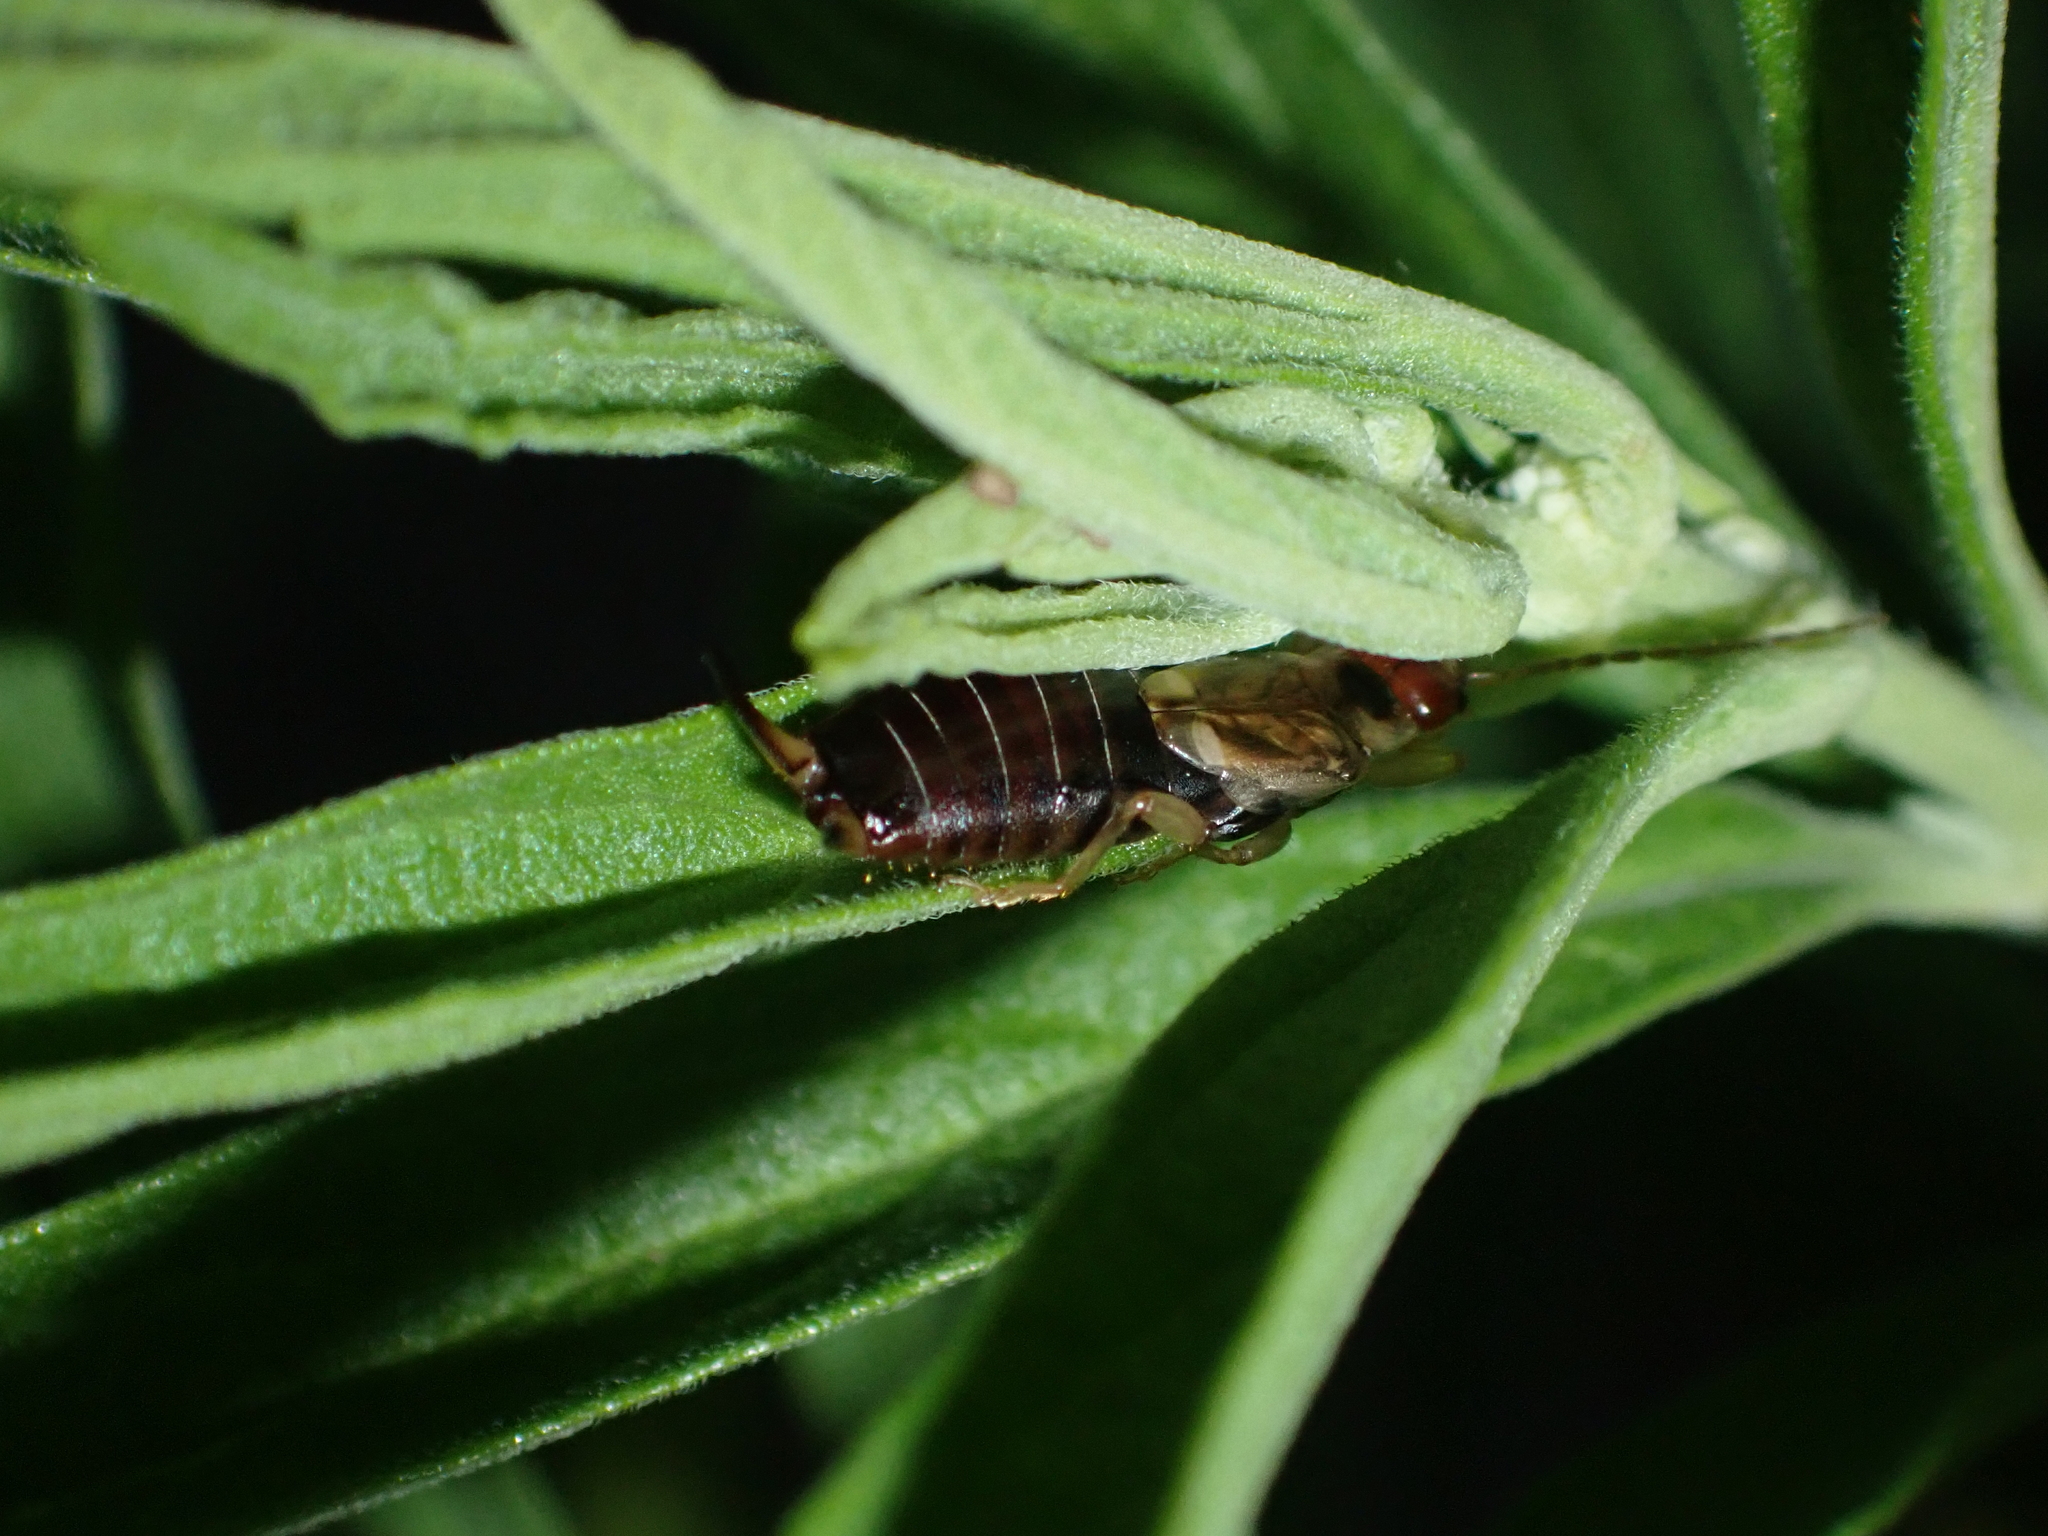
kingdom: Animalia
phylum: Arthropoda
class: Insecta
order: Dermaptera
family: Forficulidae
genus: Forficula
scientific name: Forficula
